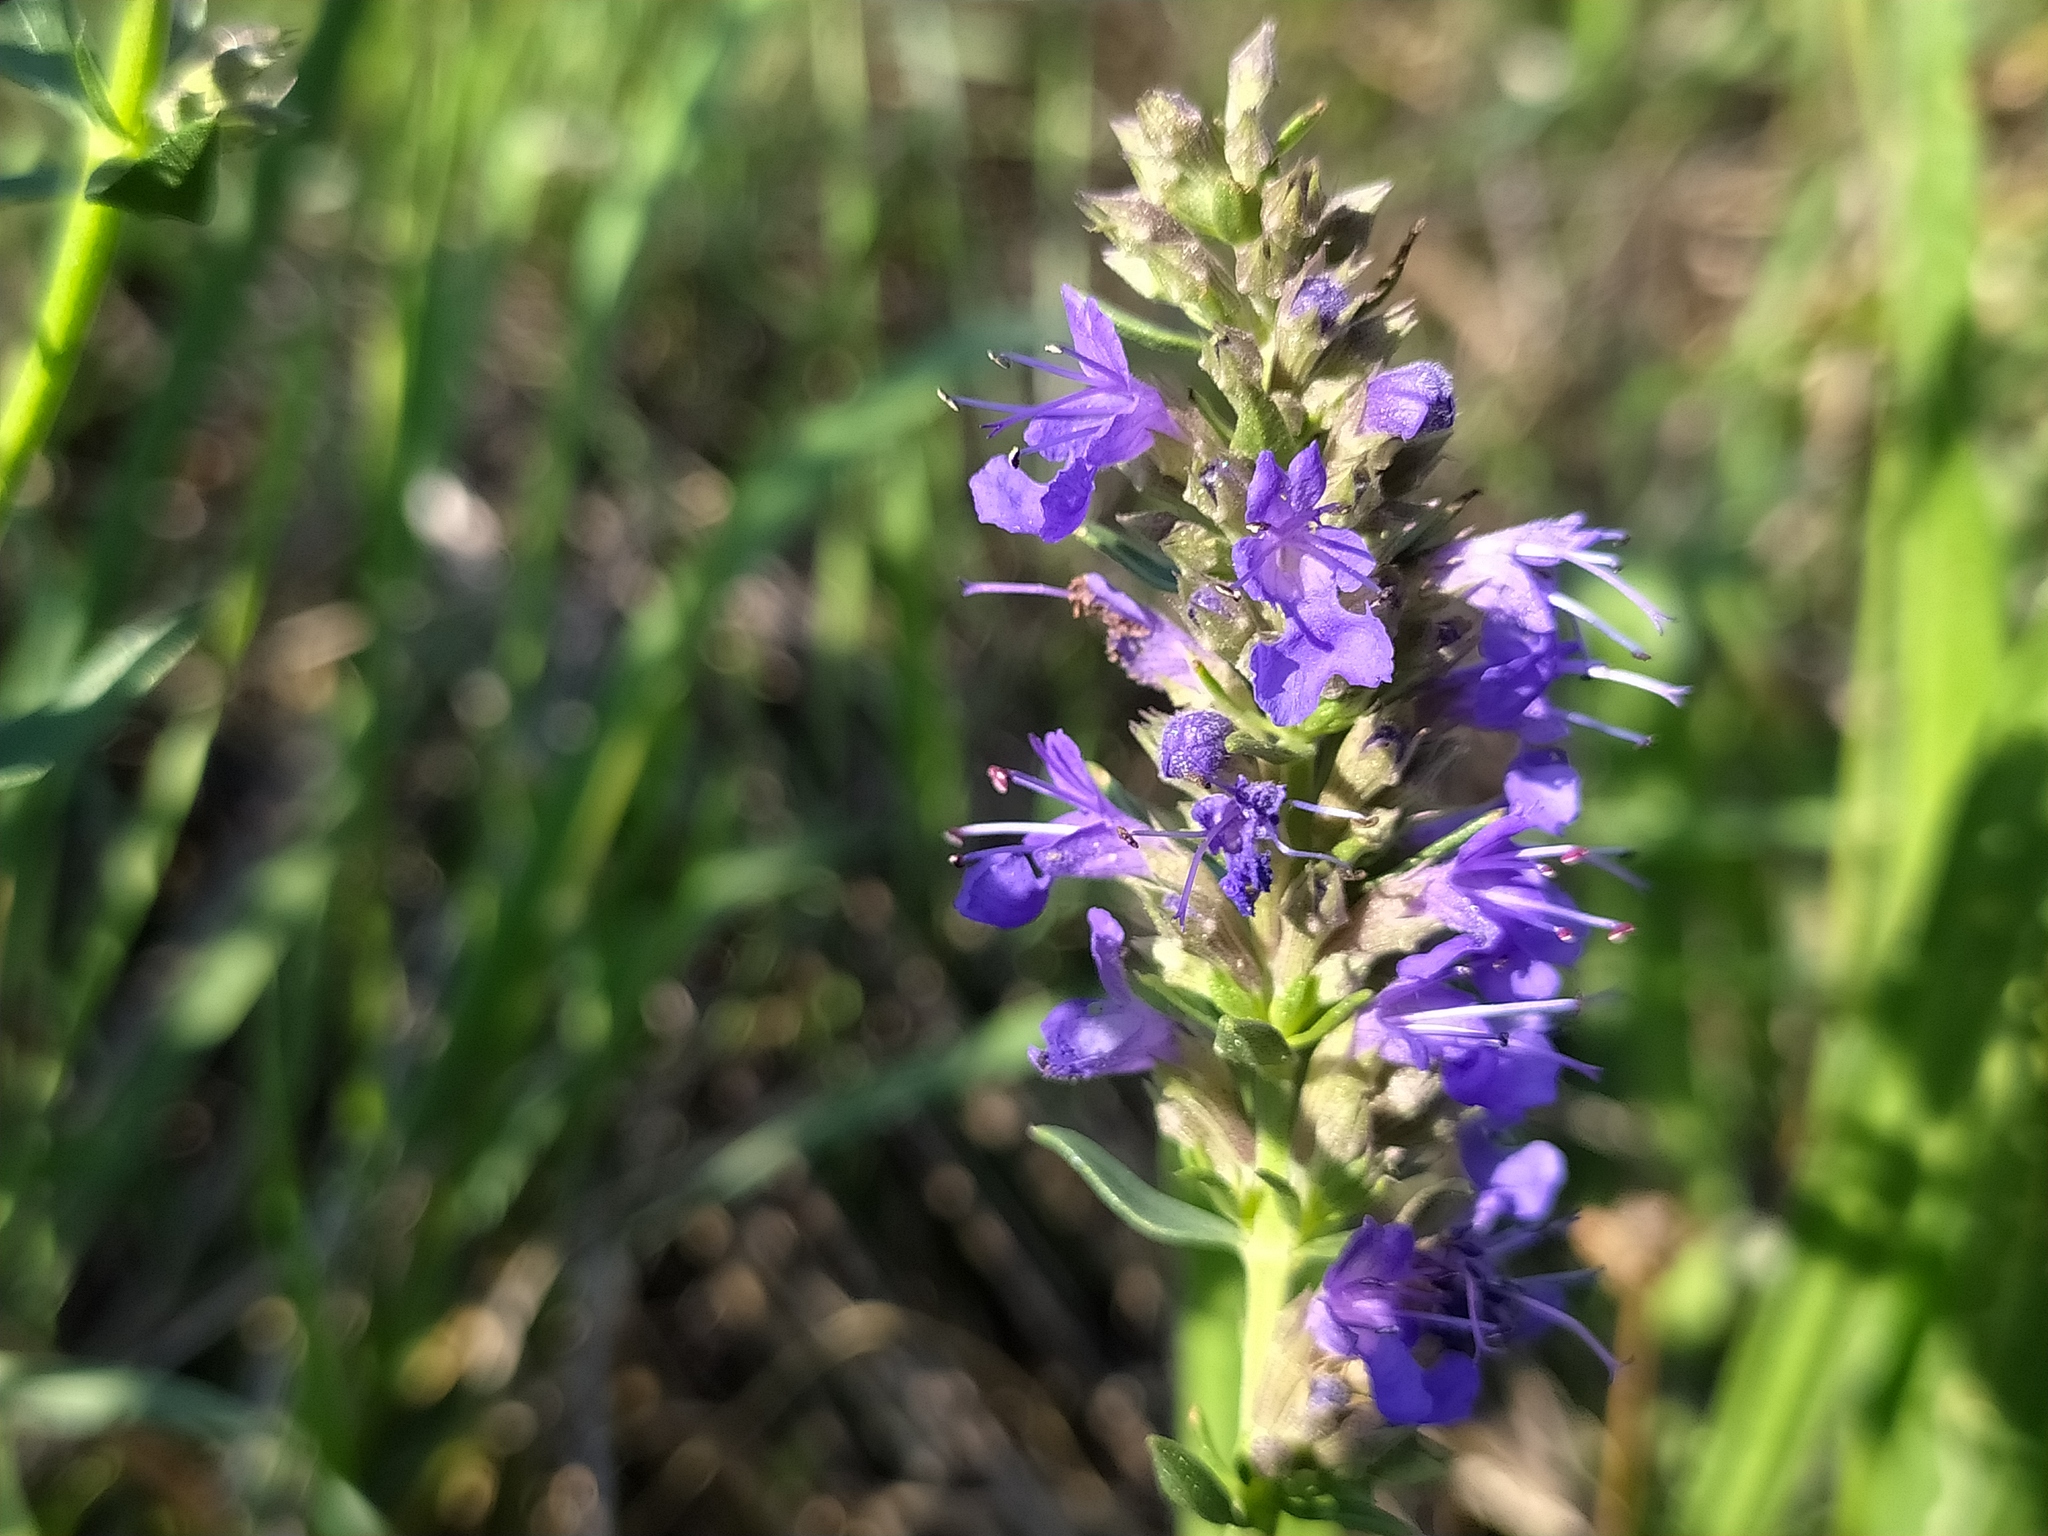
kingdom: Plantae
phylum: Tracheophyta
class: Magnoliopsida
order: Lamiales
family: Lamiaceae
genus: Hyssopus
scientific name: Hyssopus officinalis
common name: Hyssop
